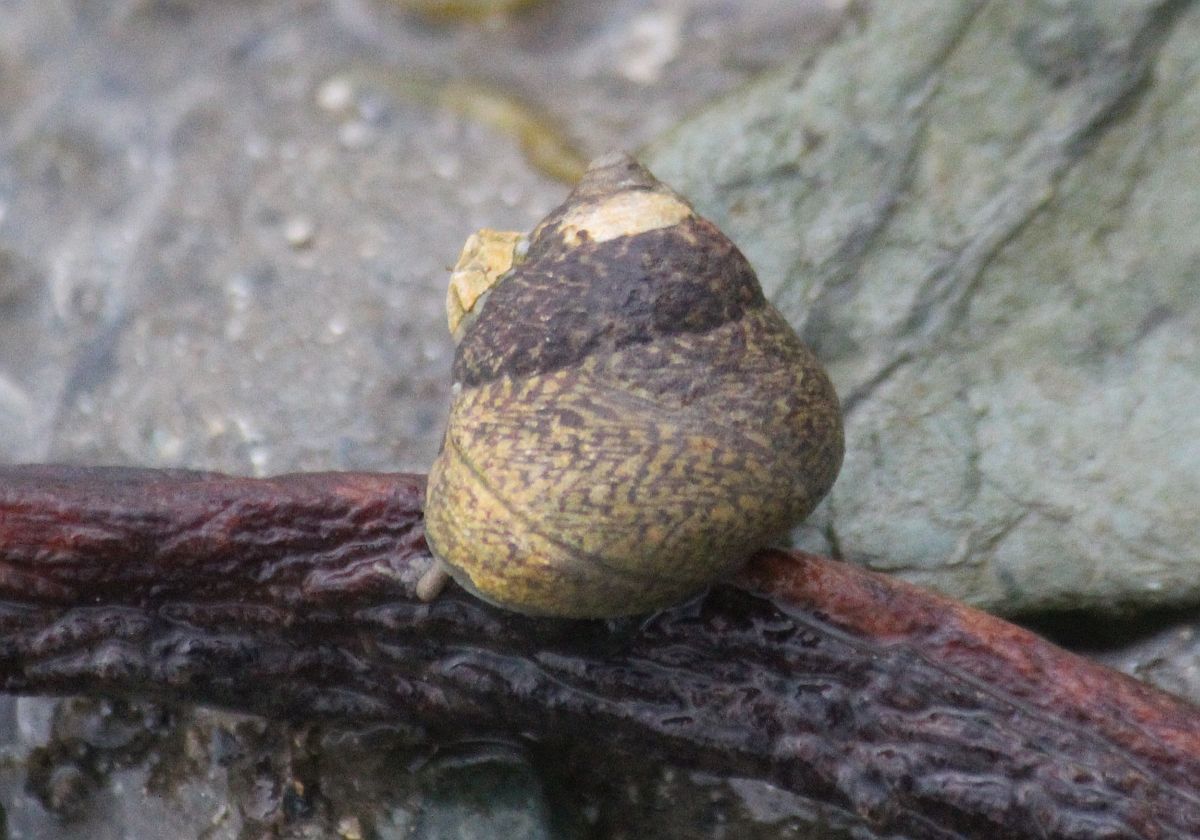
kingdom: Animalia
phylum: Mollusca
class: Gastropoda
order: Trochida
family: Trochidae
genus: Phorcus
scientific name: Phorcus lineatus
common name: Toothed top shell
